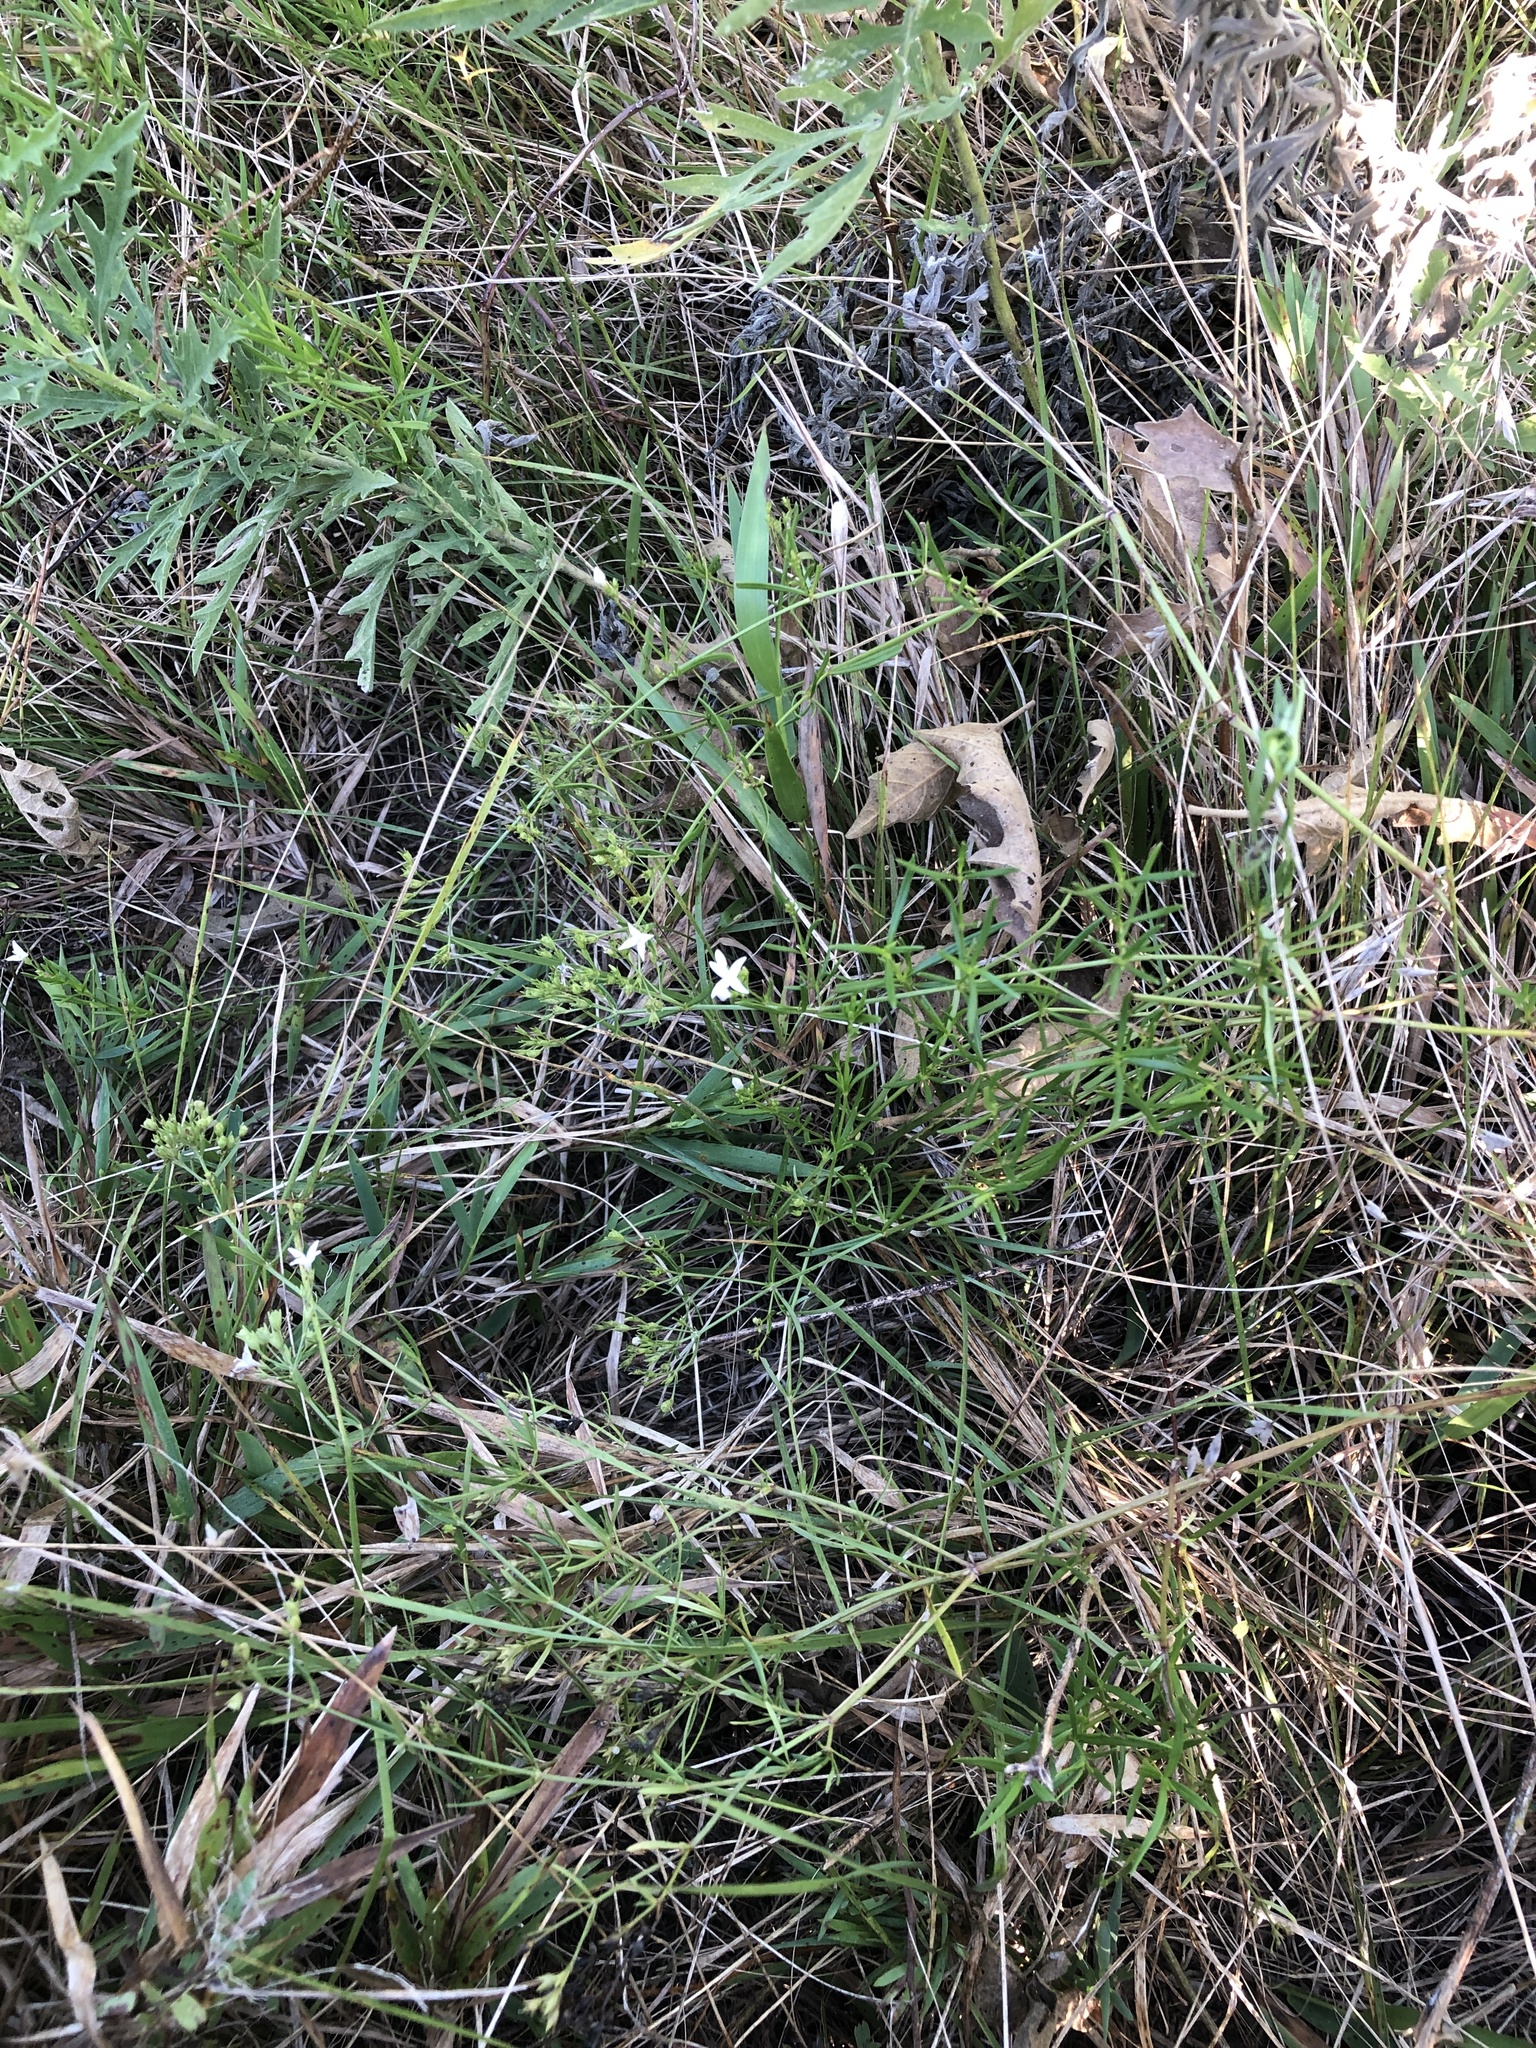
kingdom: Plantae
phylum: Tracheophyta
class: Magnoliopsida
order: Gentianales
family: Rubiaceae
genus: Stenaria
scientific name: Stenaria nigricans
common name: Diamondflowers
